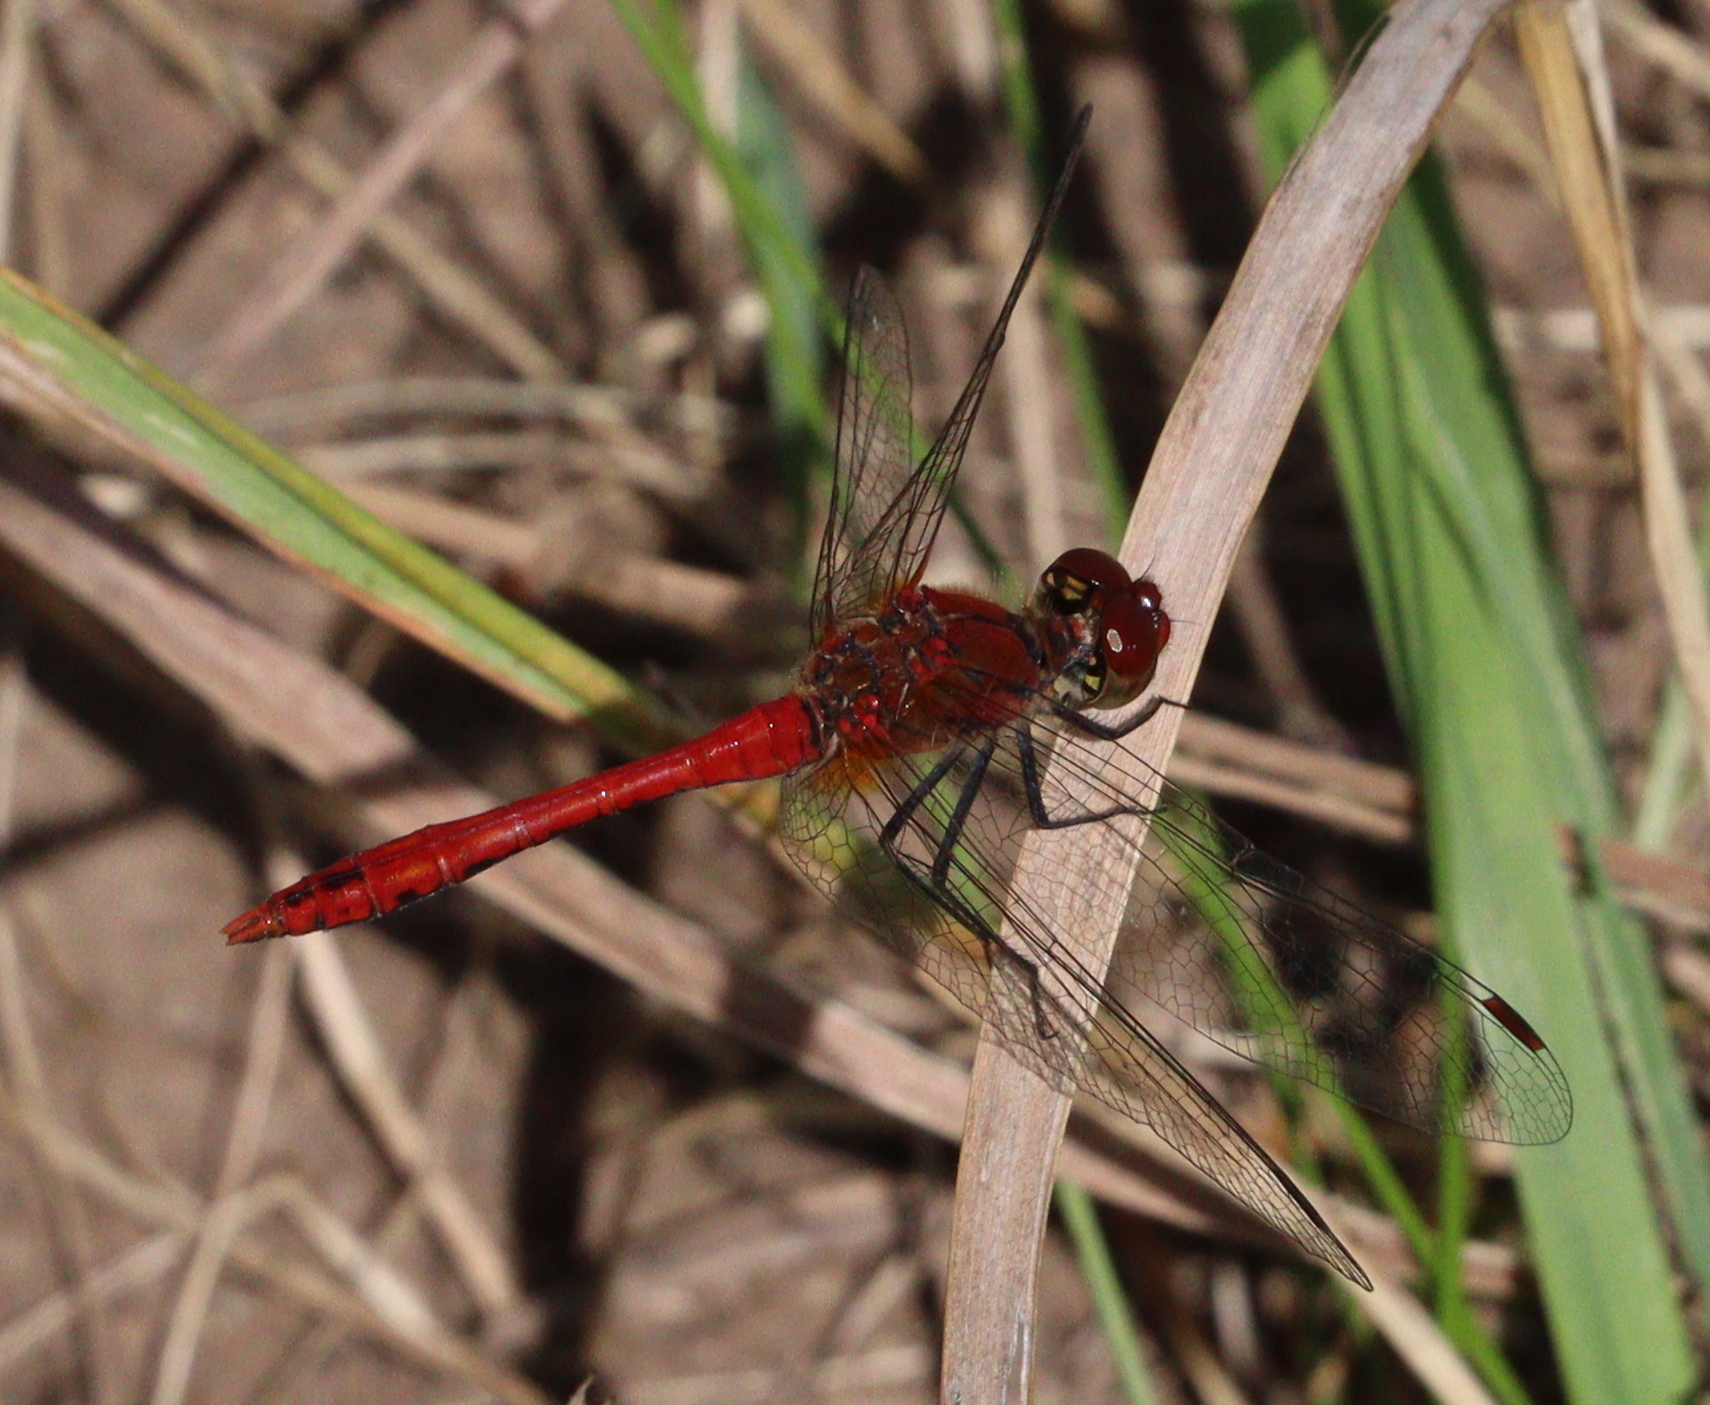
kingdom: Animalia
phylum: Arthropoda
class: Insecta
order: Odonata
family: Libellulidae
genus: Sympetrum
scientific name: Sympetrum sanguineum
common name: Ruddy darter
